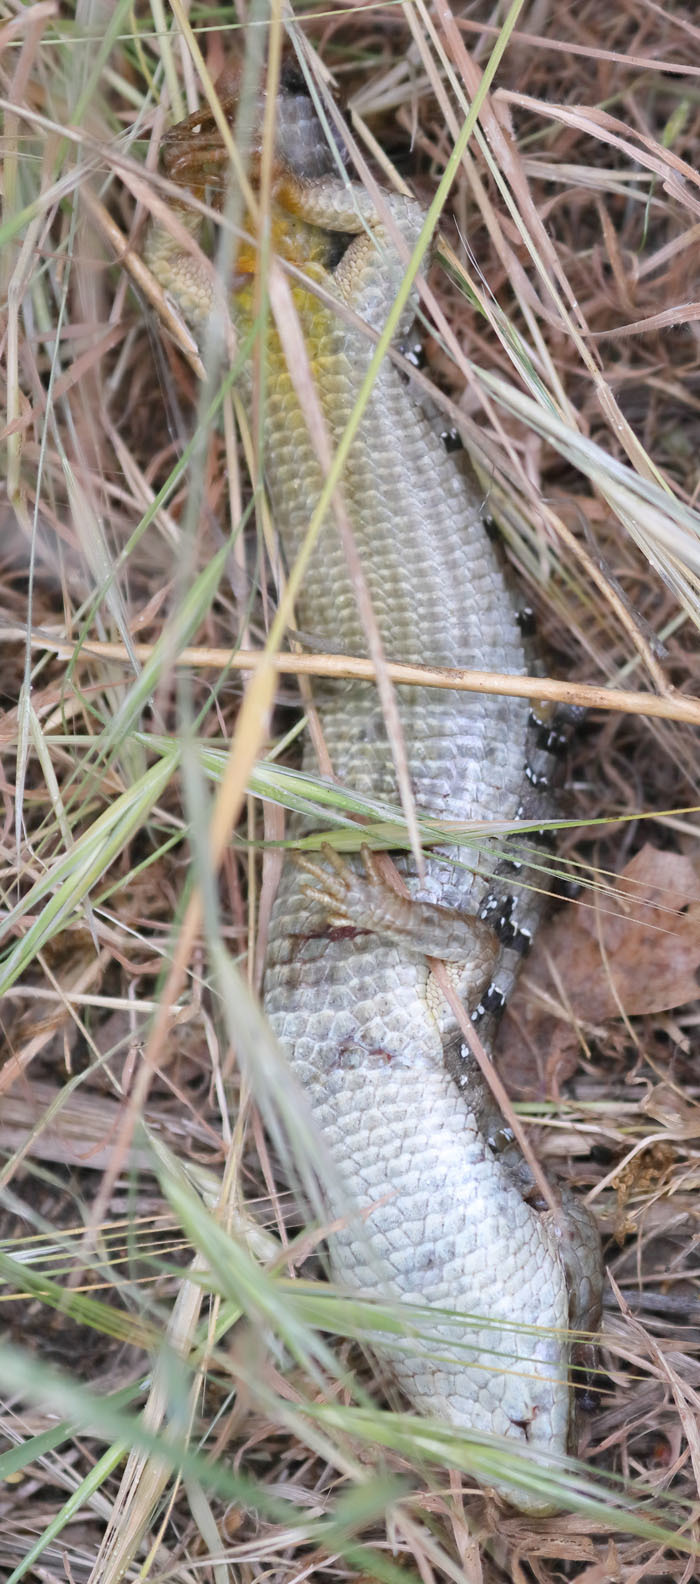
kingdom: Animalia
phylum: Chordata
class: Squamata
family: Anguidae
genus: Elgaria
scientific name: Elgaria multicarinata
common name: Southern alligator lizard
